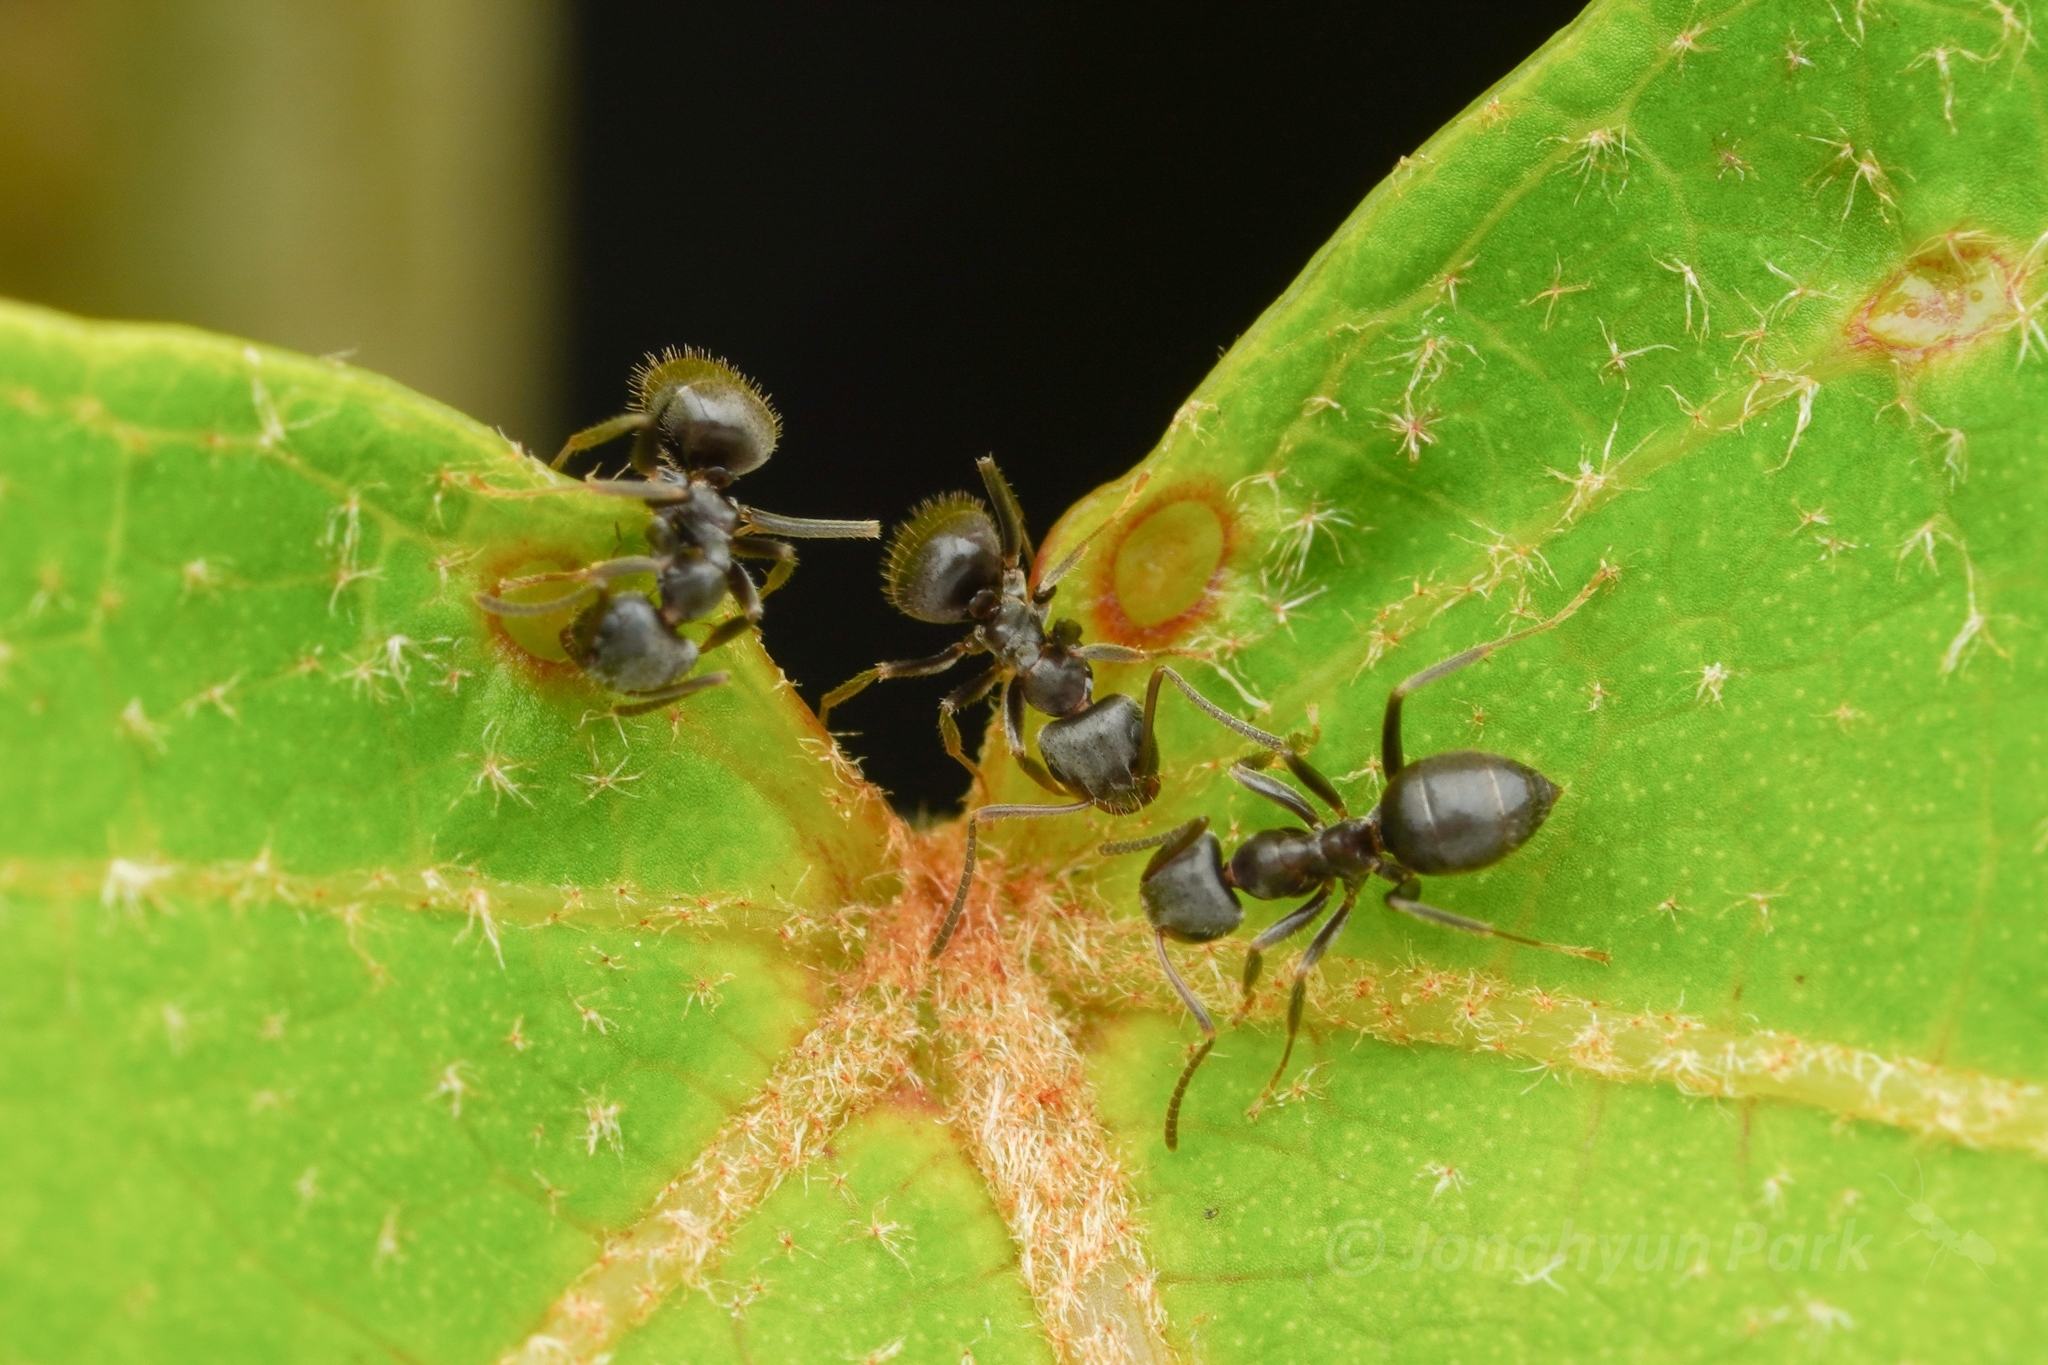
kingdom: Animalia
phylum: Arthropoda
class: Insecta
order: Hymenoptera
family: Formicidae
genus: Lasius
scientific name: Lasius japonicus
